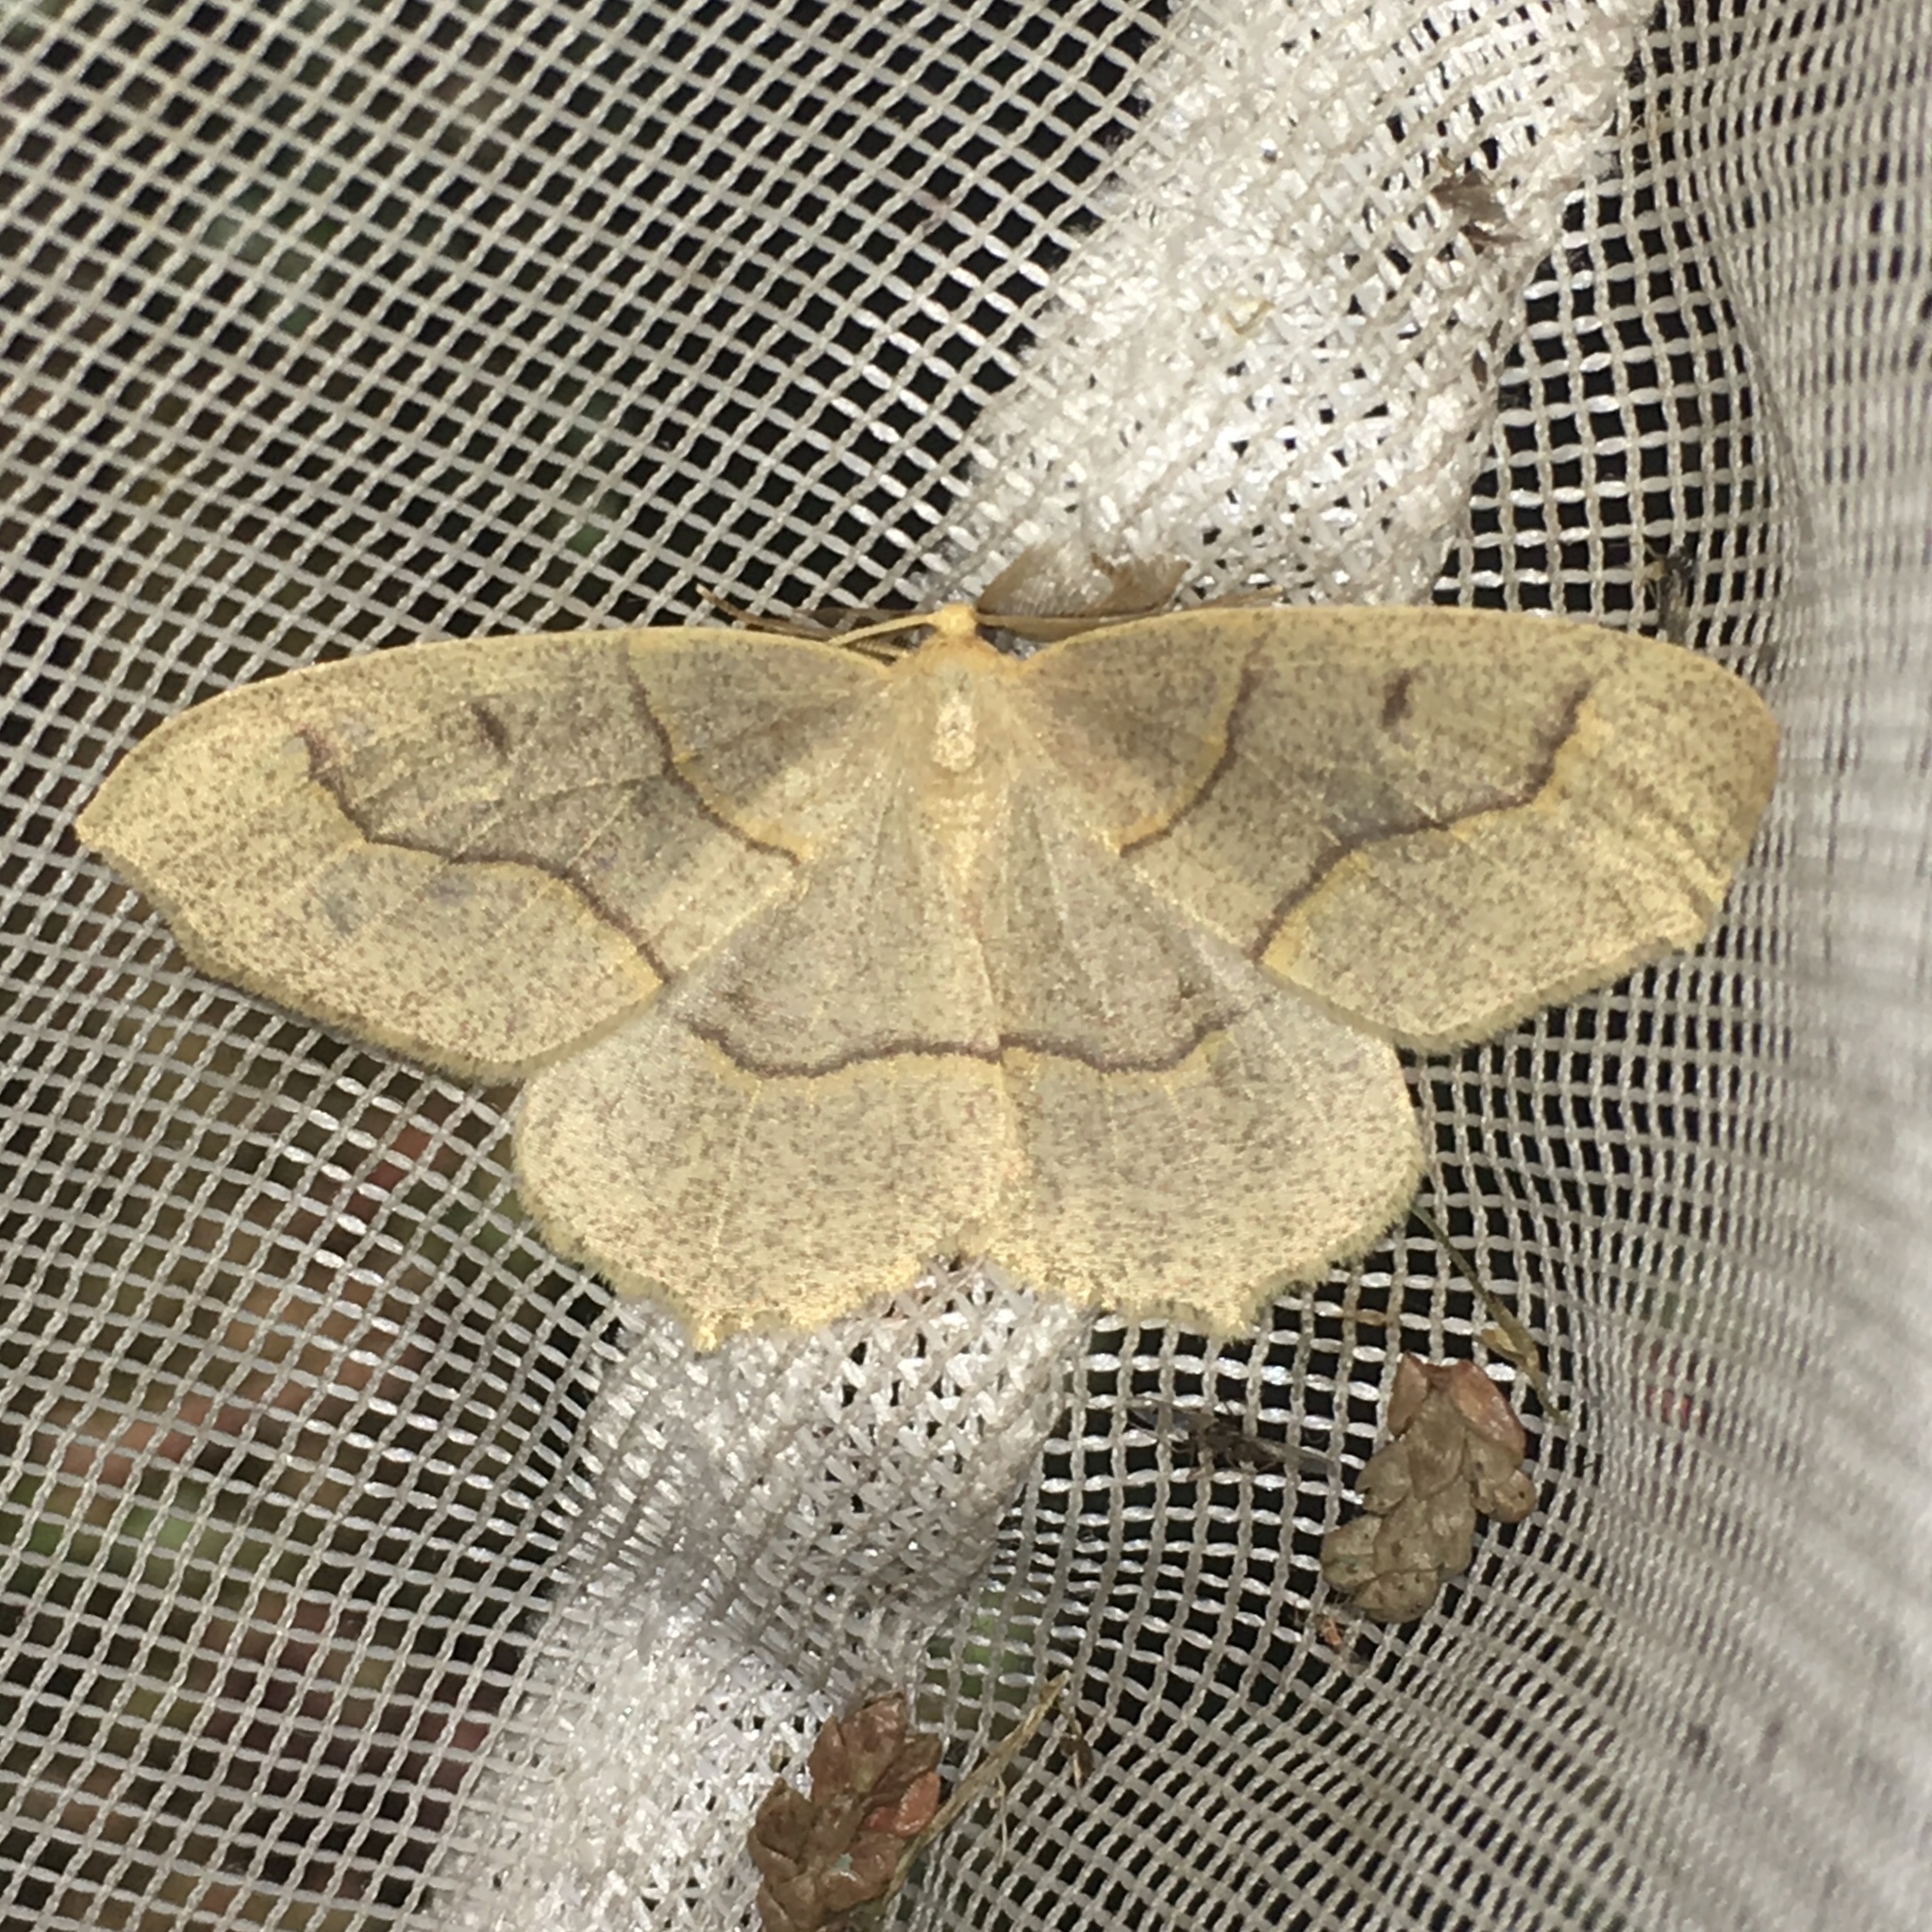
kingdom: Animalia
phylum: Arthropoda
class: Insecta
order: Lepidoptera
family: Geometridae
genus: Lambdina
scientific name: Lambdina fiscellaria
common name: Hemlock looper
